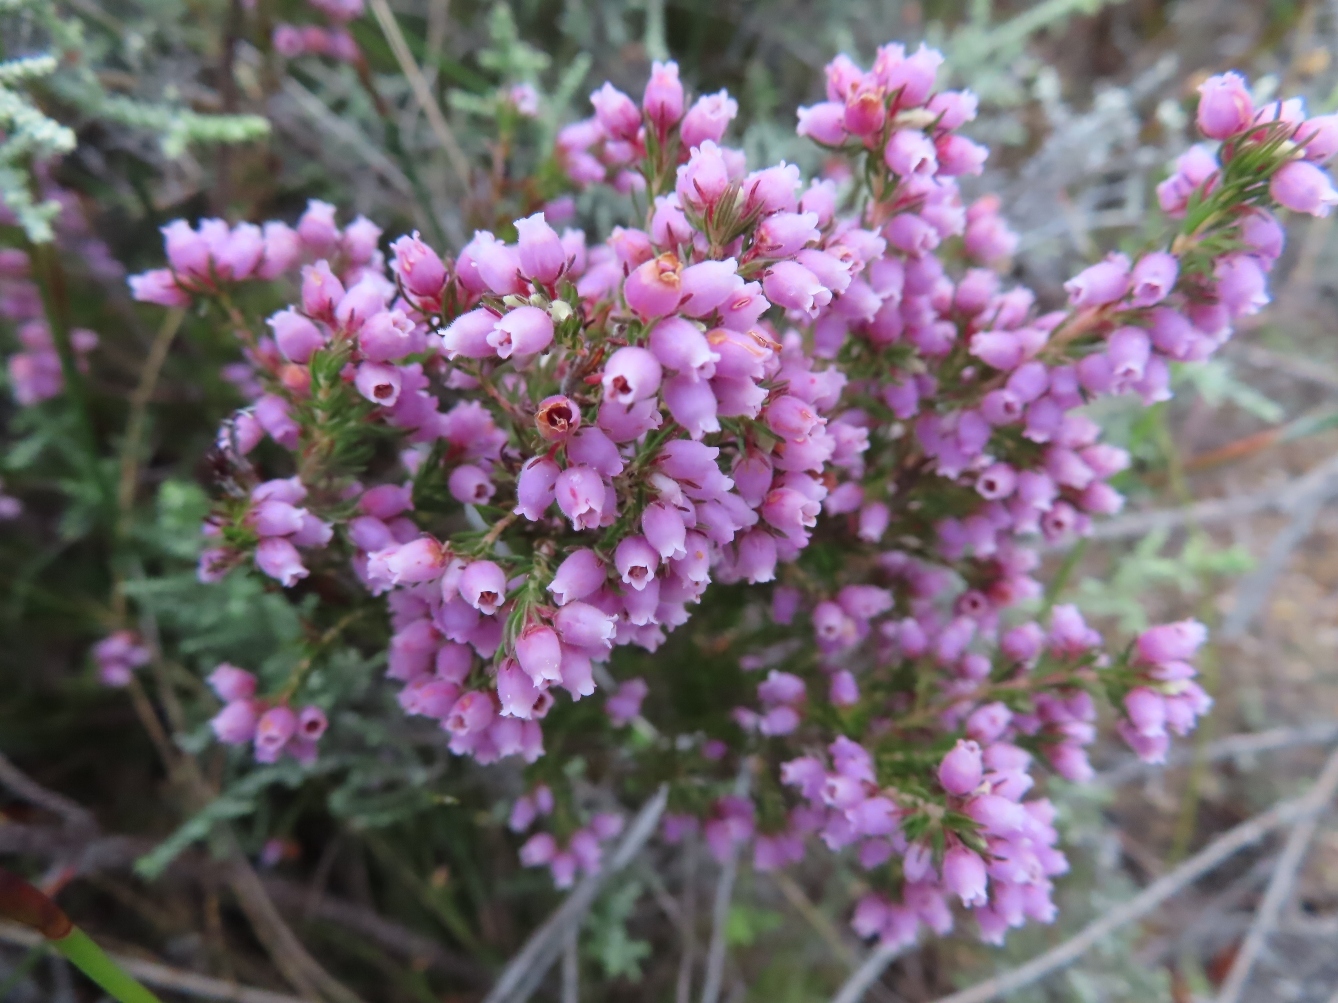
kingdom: Plantae
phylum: Tracheophyta
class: Magnoliopsida
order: Ericales
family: Ericaceae
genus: Erica
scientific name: Erica hirtiflora
